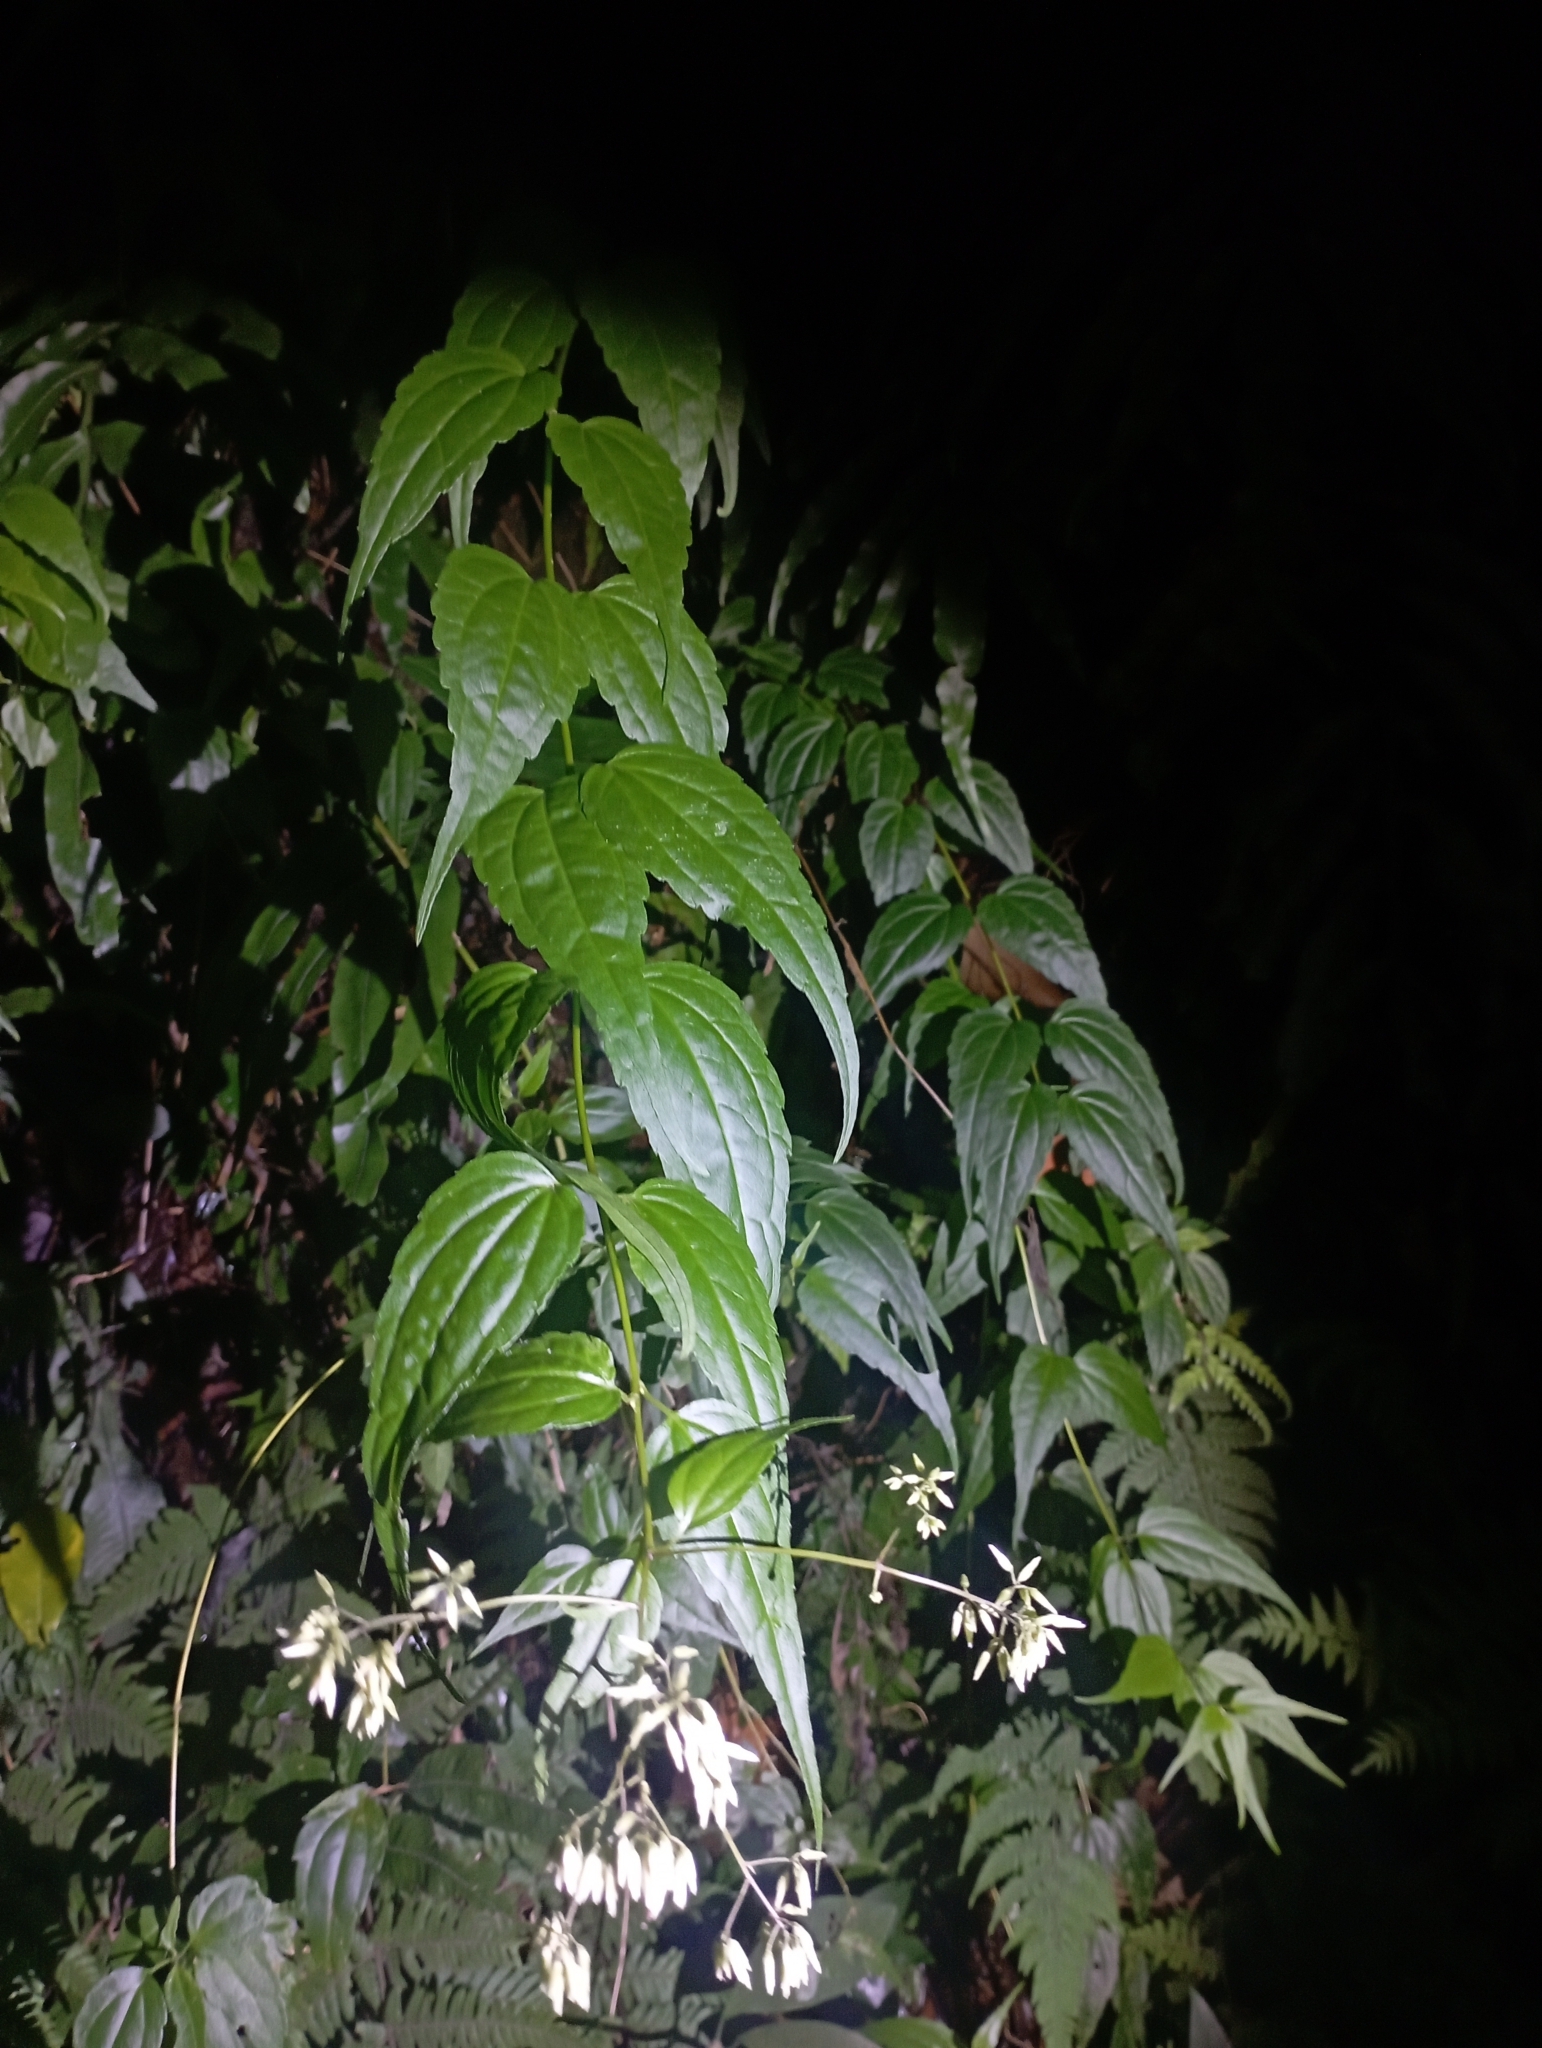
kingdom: Plantae
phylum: Tracheophyta
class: Magnoliopsida
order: Asterales
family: Asteraceae
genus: Eupatorium
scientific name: Eupatorium tashiroi
